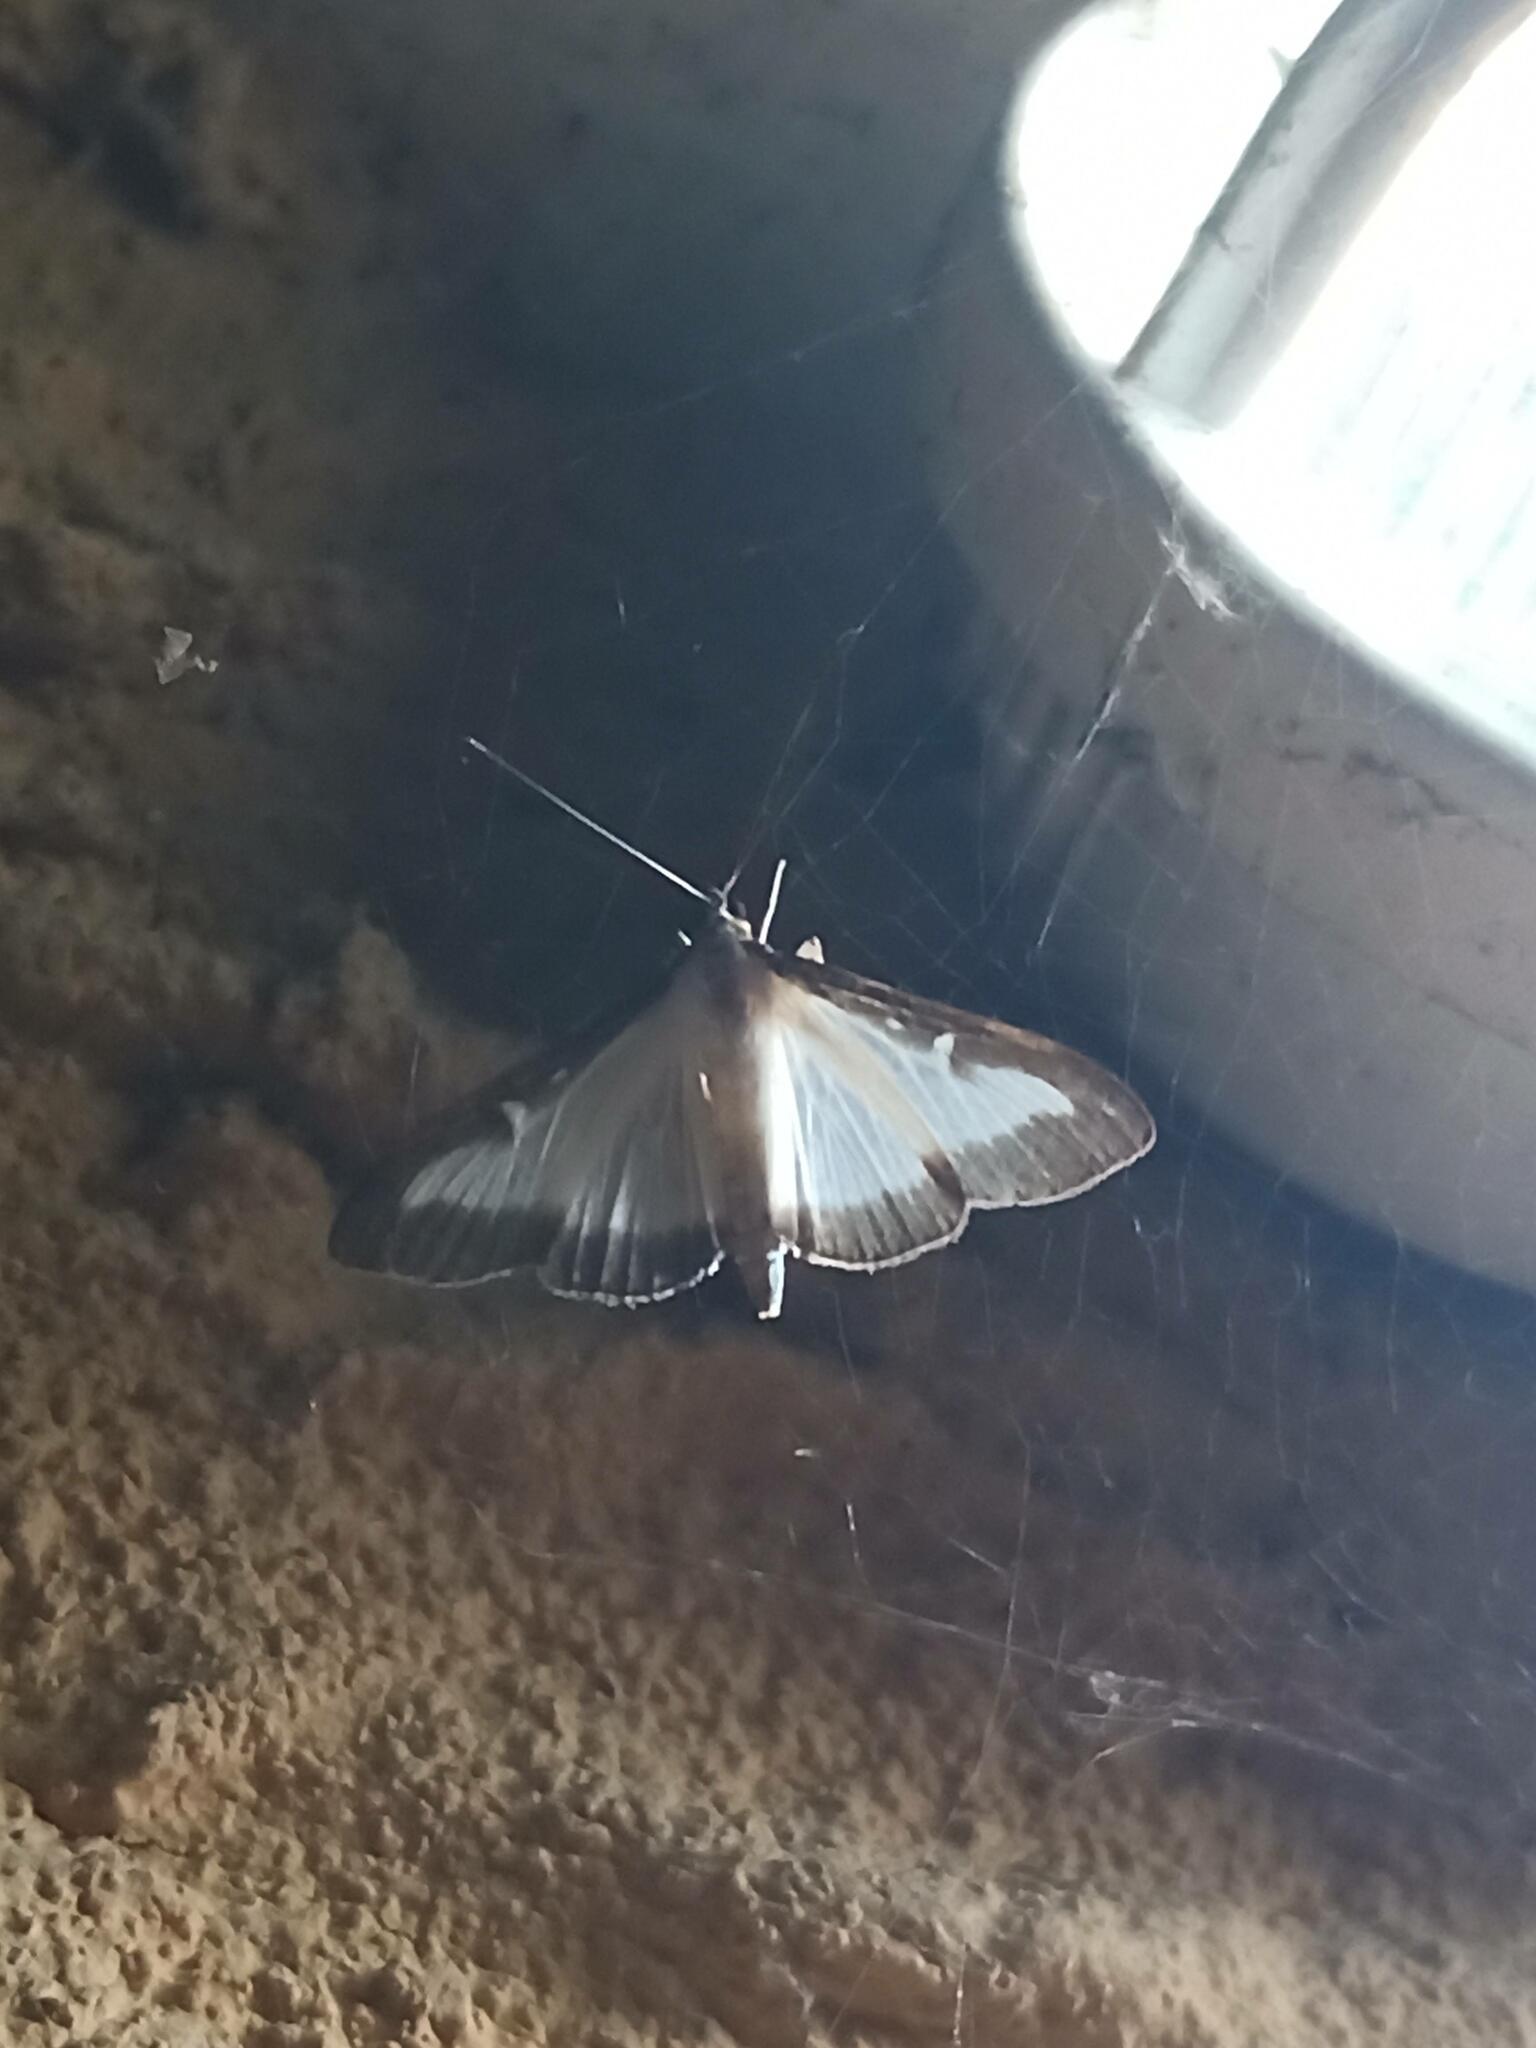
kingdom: Animalia
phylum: Arthropoda
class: Insecta
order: Lepidoptera
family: Crambidae
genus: Cydalima
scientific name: Cydalima perspectalis
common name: Box tree moth
